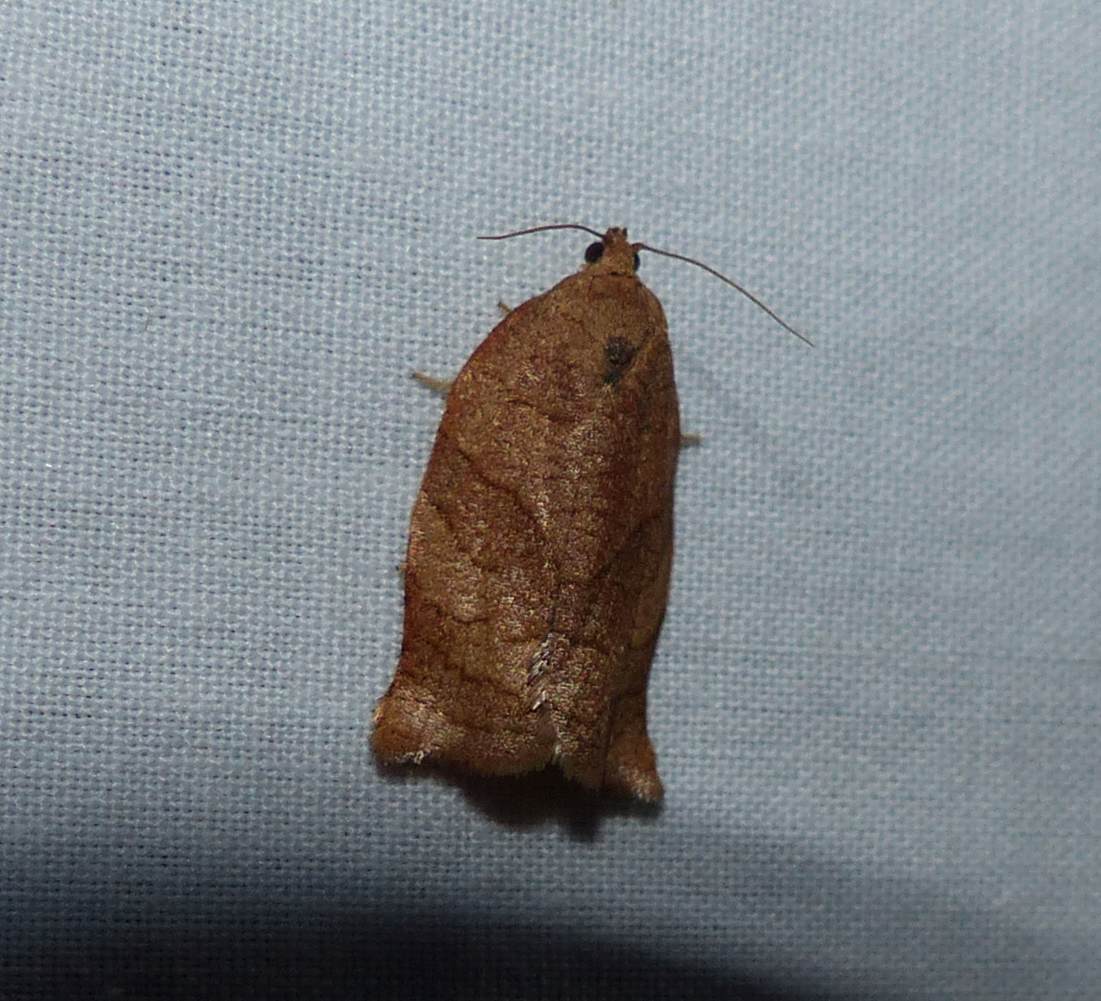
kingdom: Animalia
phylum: Arthropoda
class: Insecta
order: Lepidoptera
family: Tortricidae
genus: Choristoneura
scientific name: Choristoneura rosaceana
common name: Oblique-banded leafroller moth
